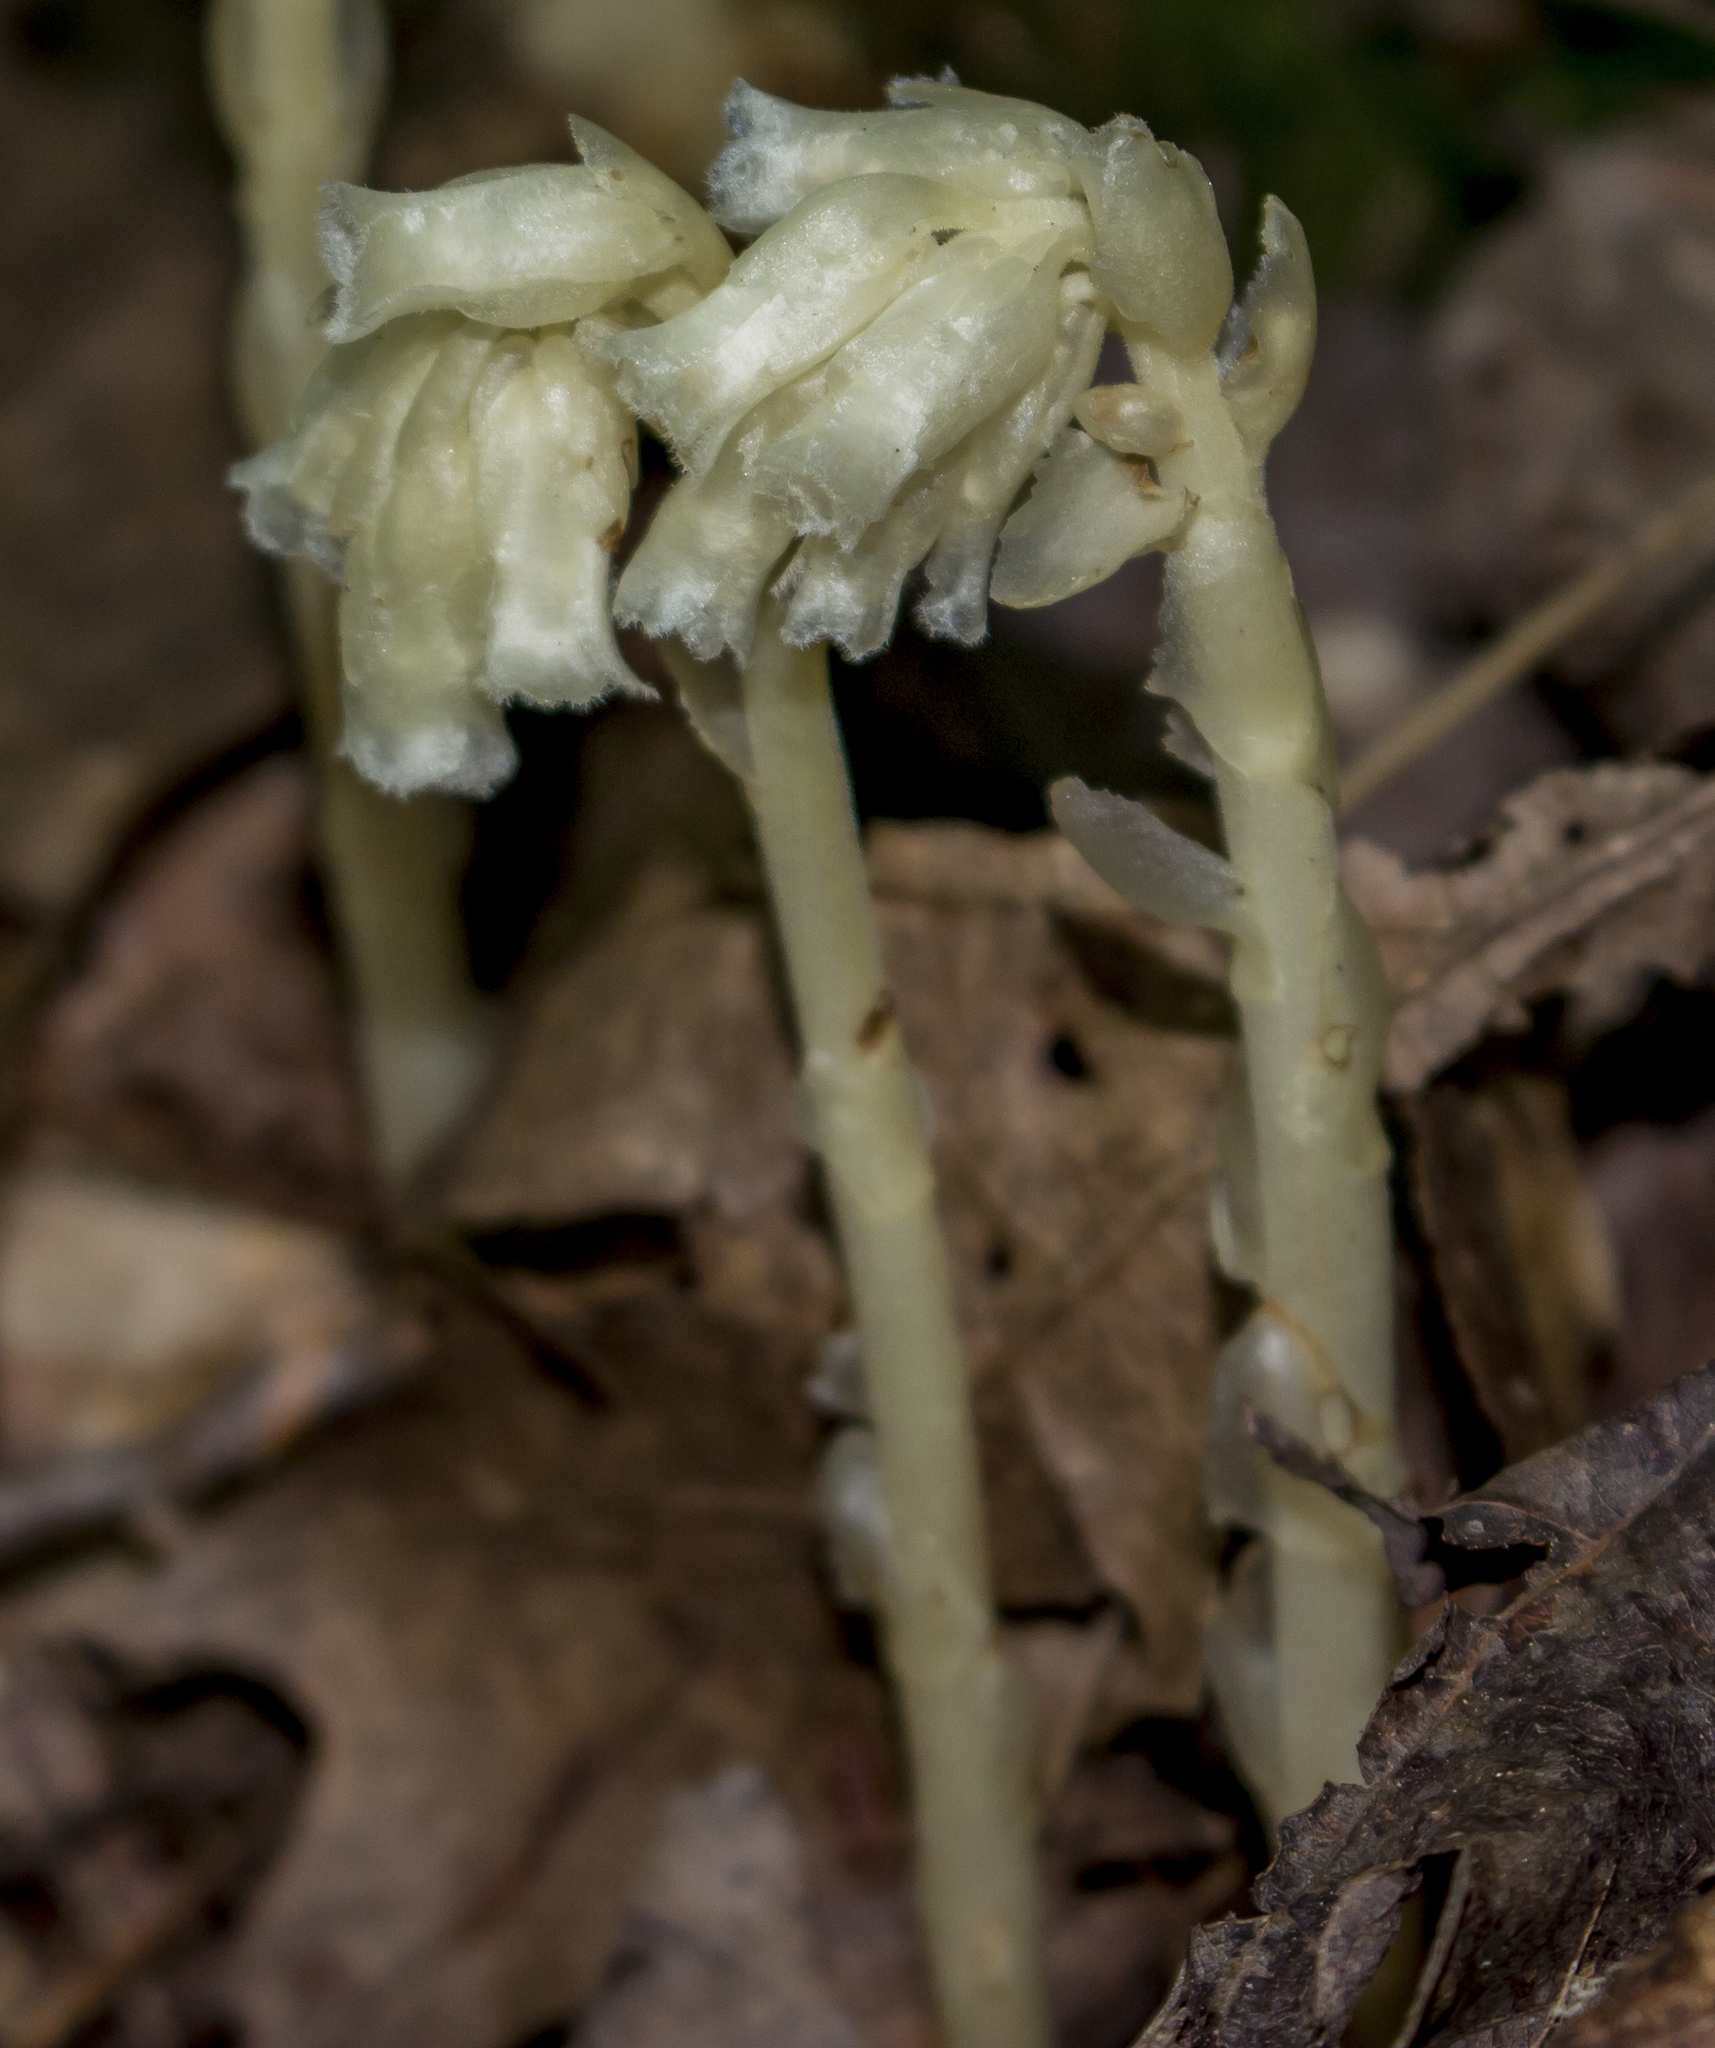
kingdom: Plantae
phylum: Tracheophyta
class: Magnoliopsida
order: Ericales
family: Ericaceae
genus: Hypopitys
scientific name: Hypopitys monotropa
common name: Yellow bird's-nest
